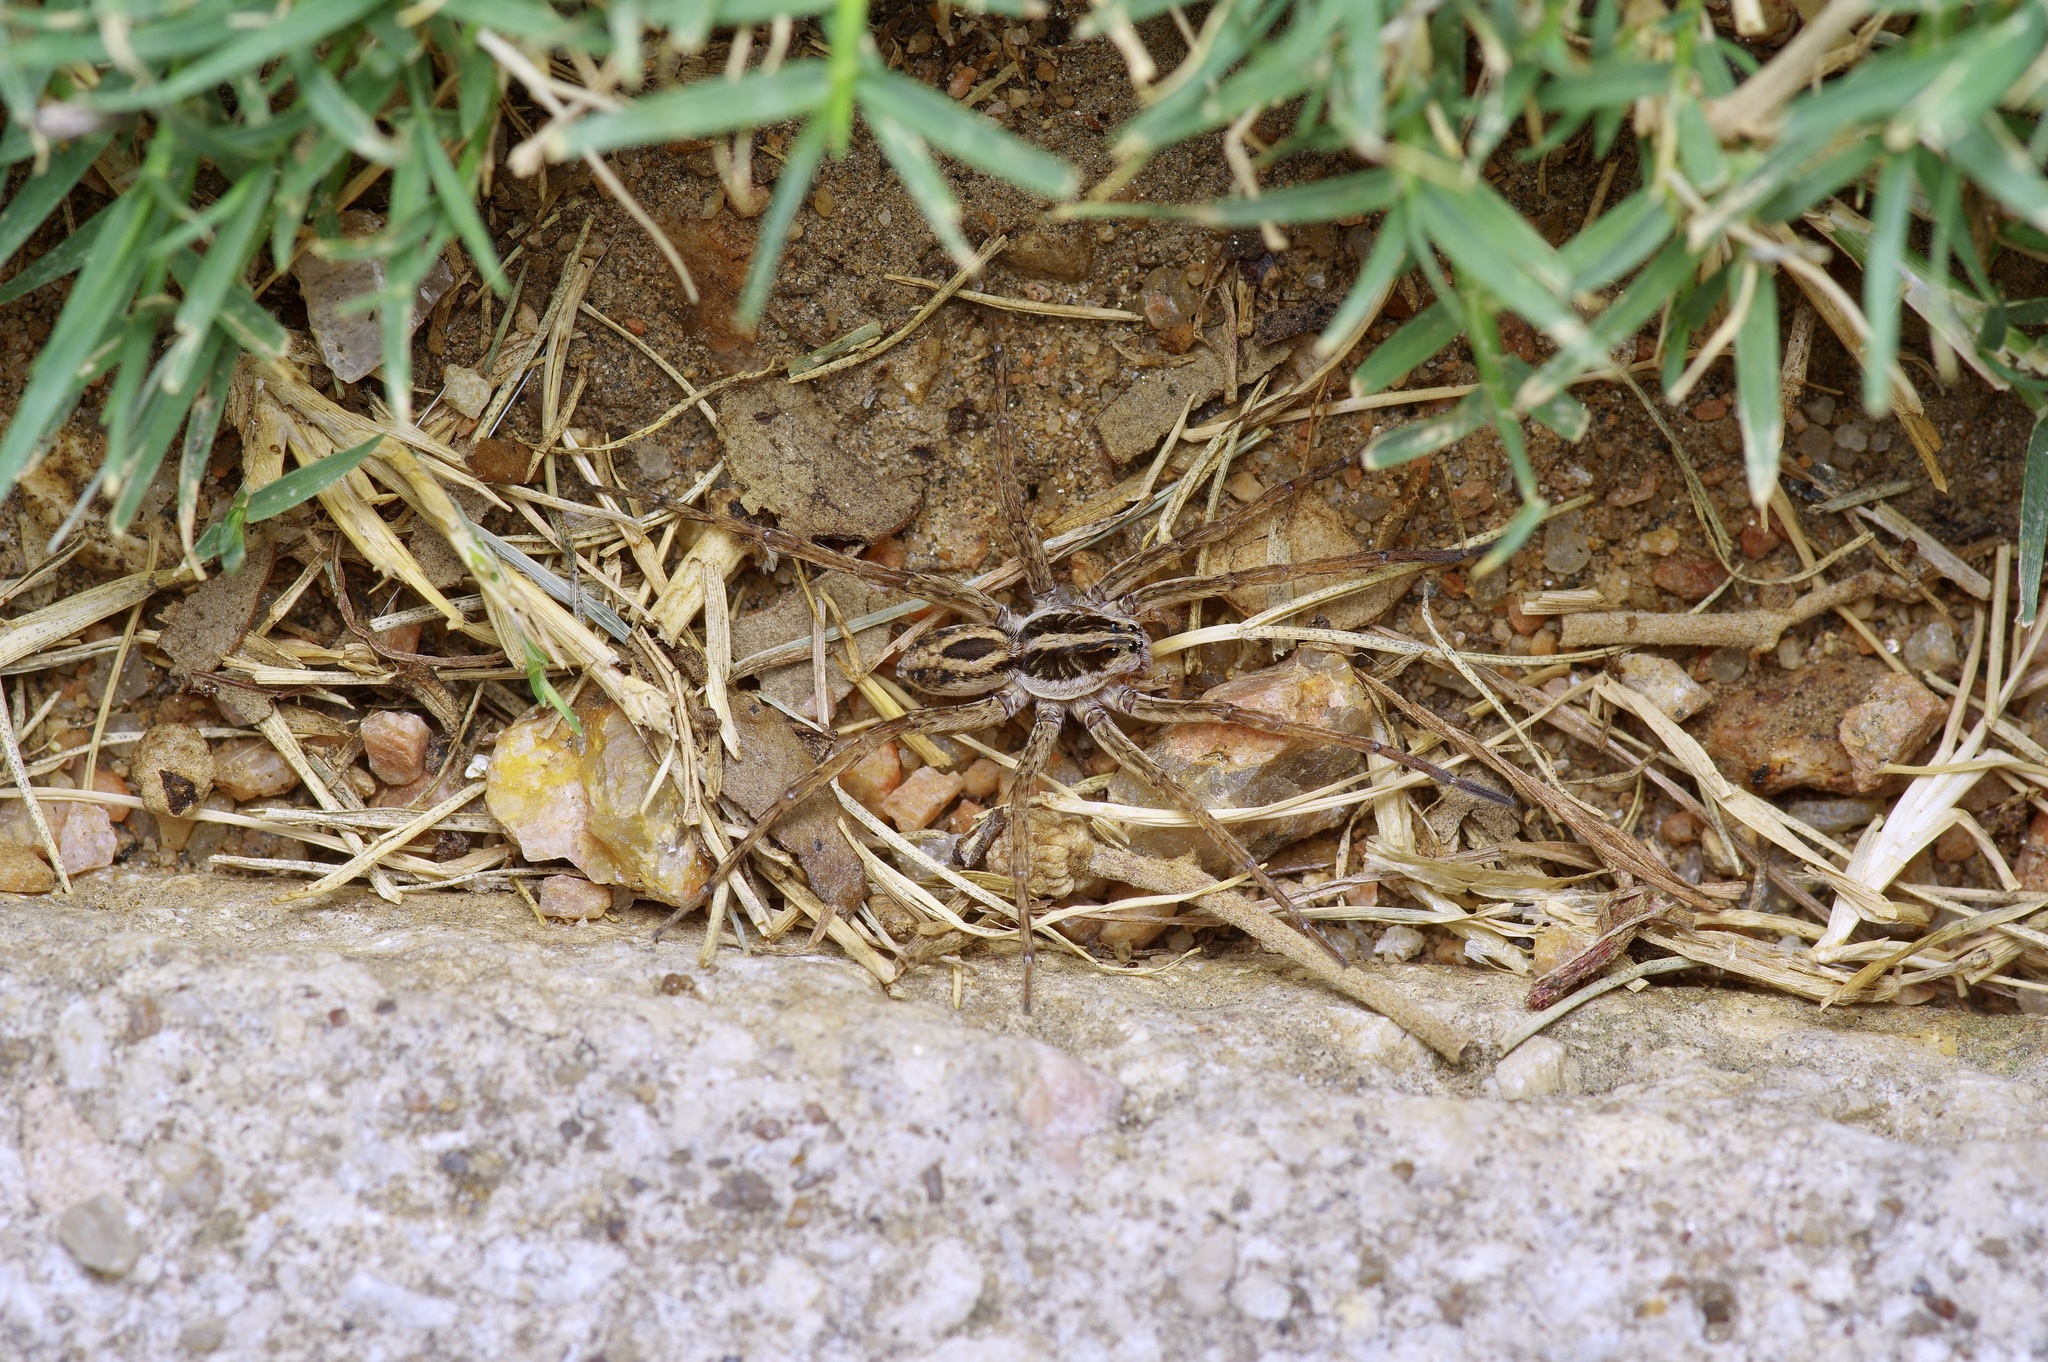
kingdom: Animalia
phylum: Arthropoda
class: Arachnida
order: Araneae
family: Lycosidae
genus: Tigrosa
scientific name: Tigrosa annexa
